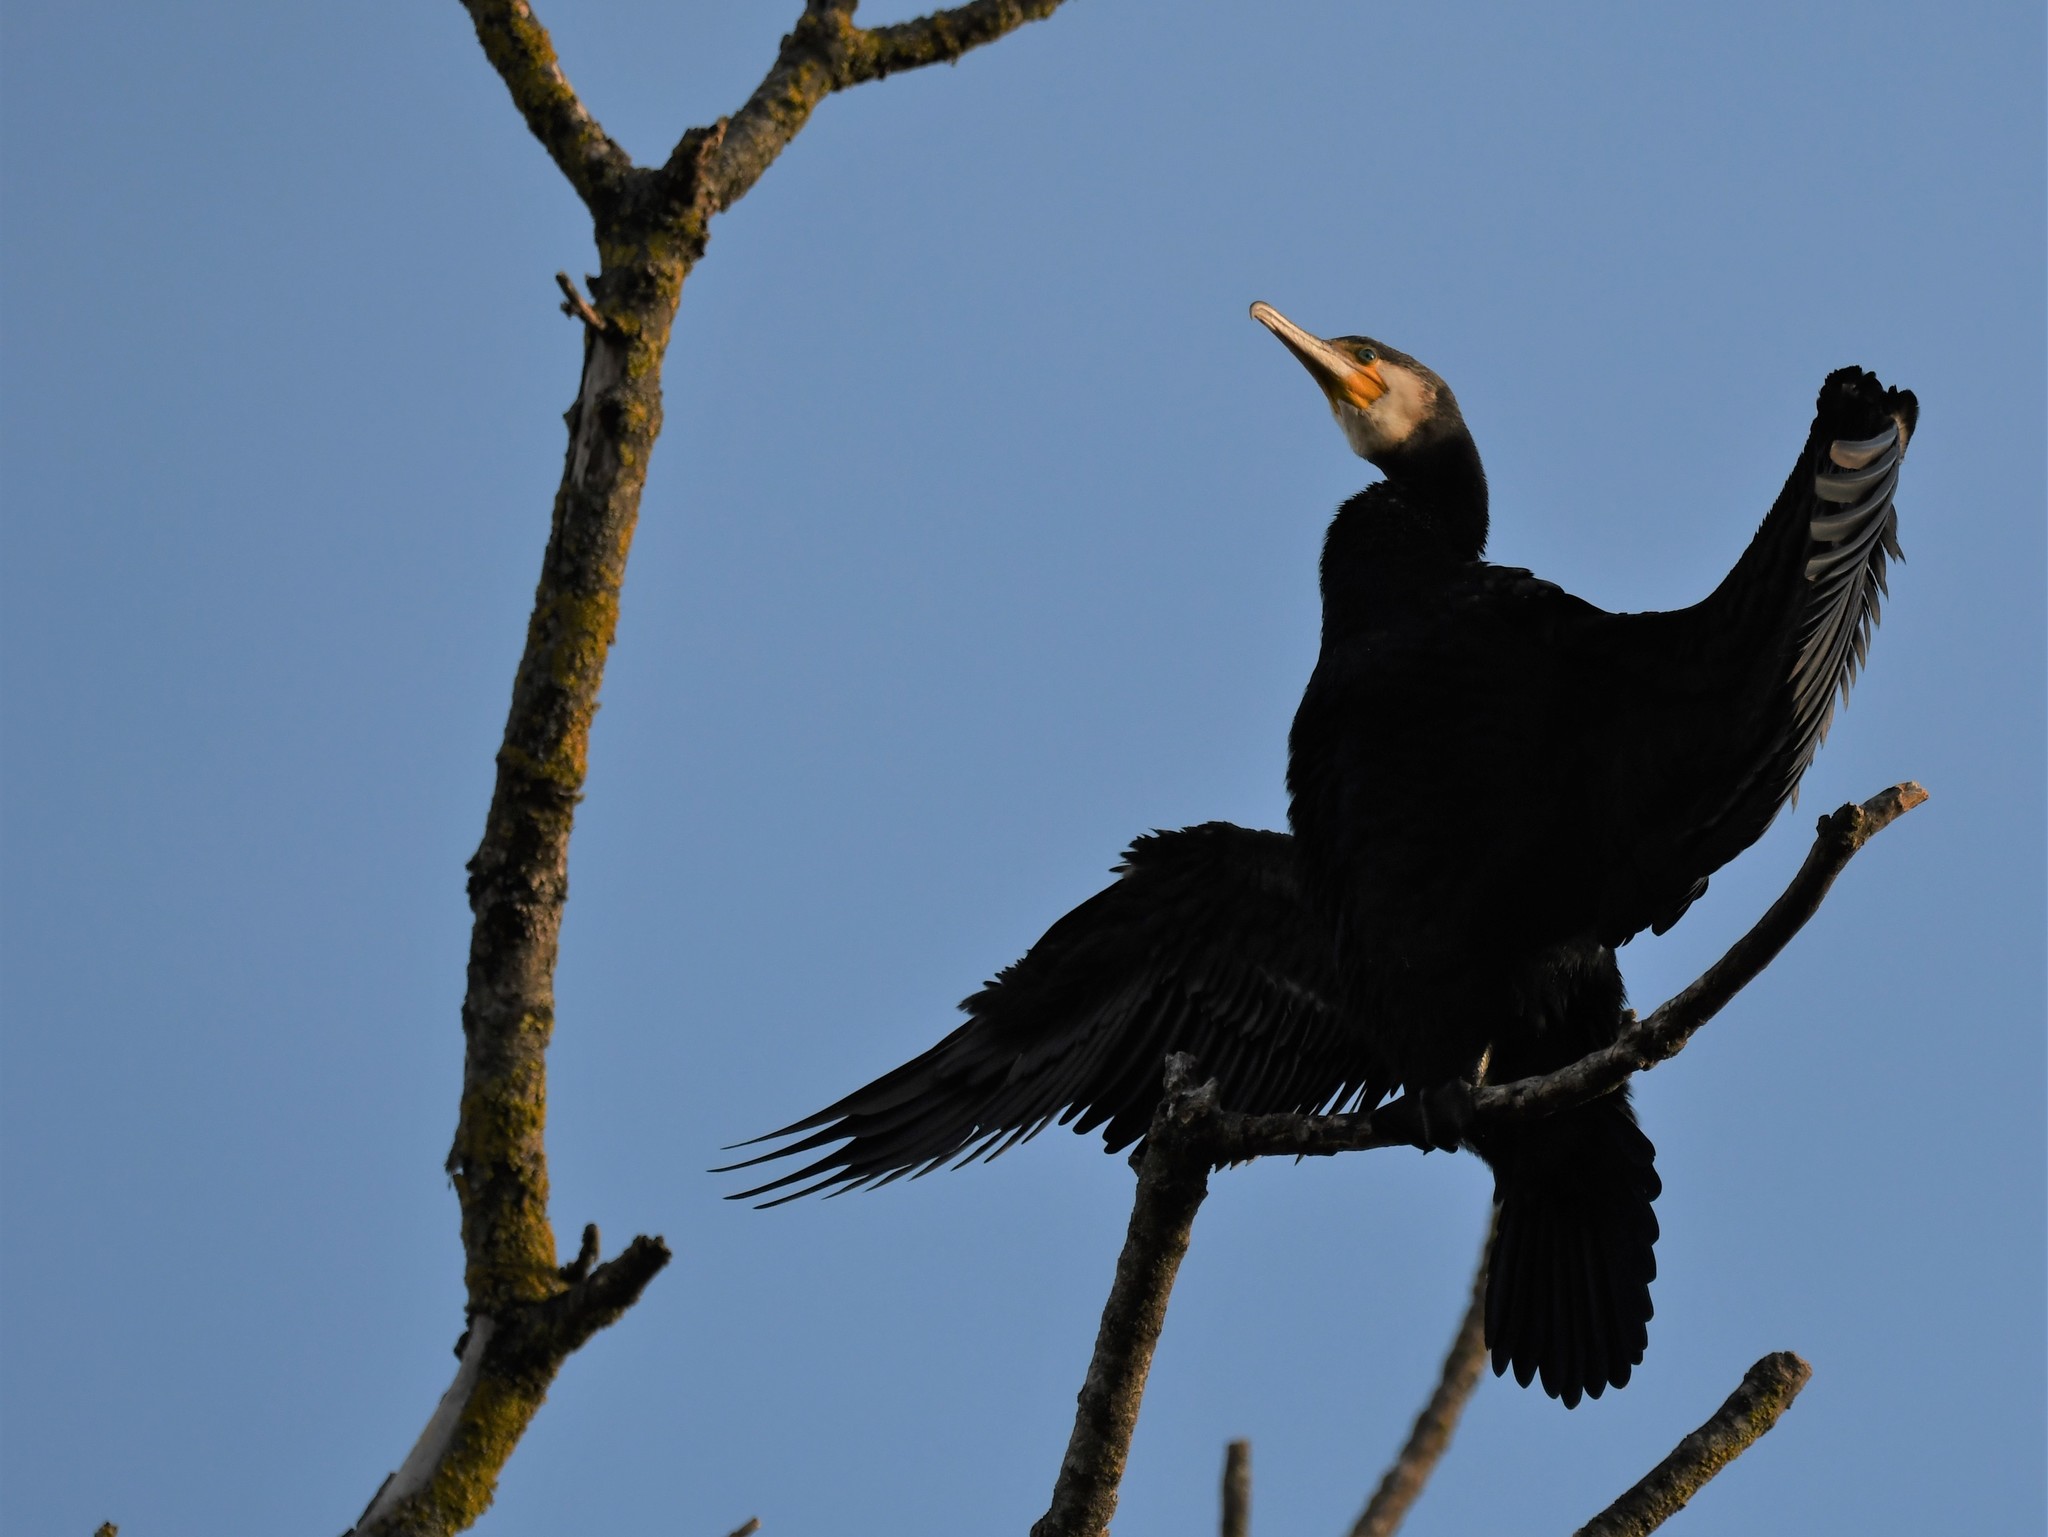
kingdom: Animalia
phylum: Chordata
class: Aves
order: Suliformes
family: Phalacrocoracidae
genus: Phalacrocorax
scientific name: Phalacrocorax carbo
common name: Great cormorant
